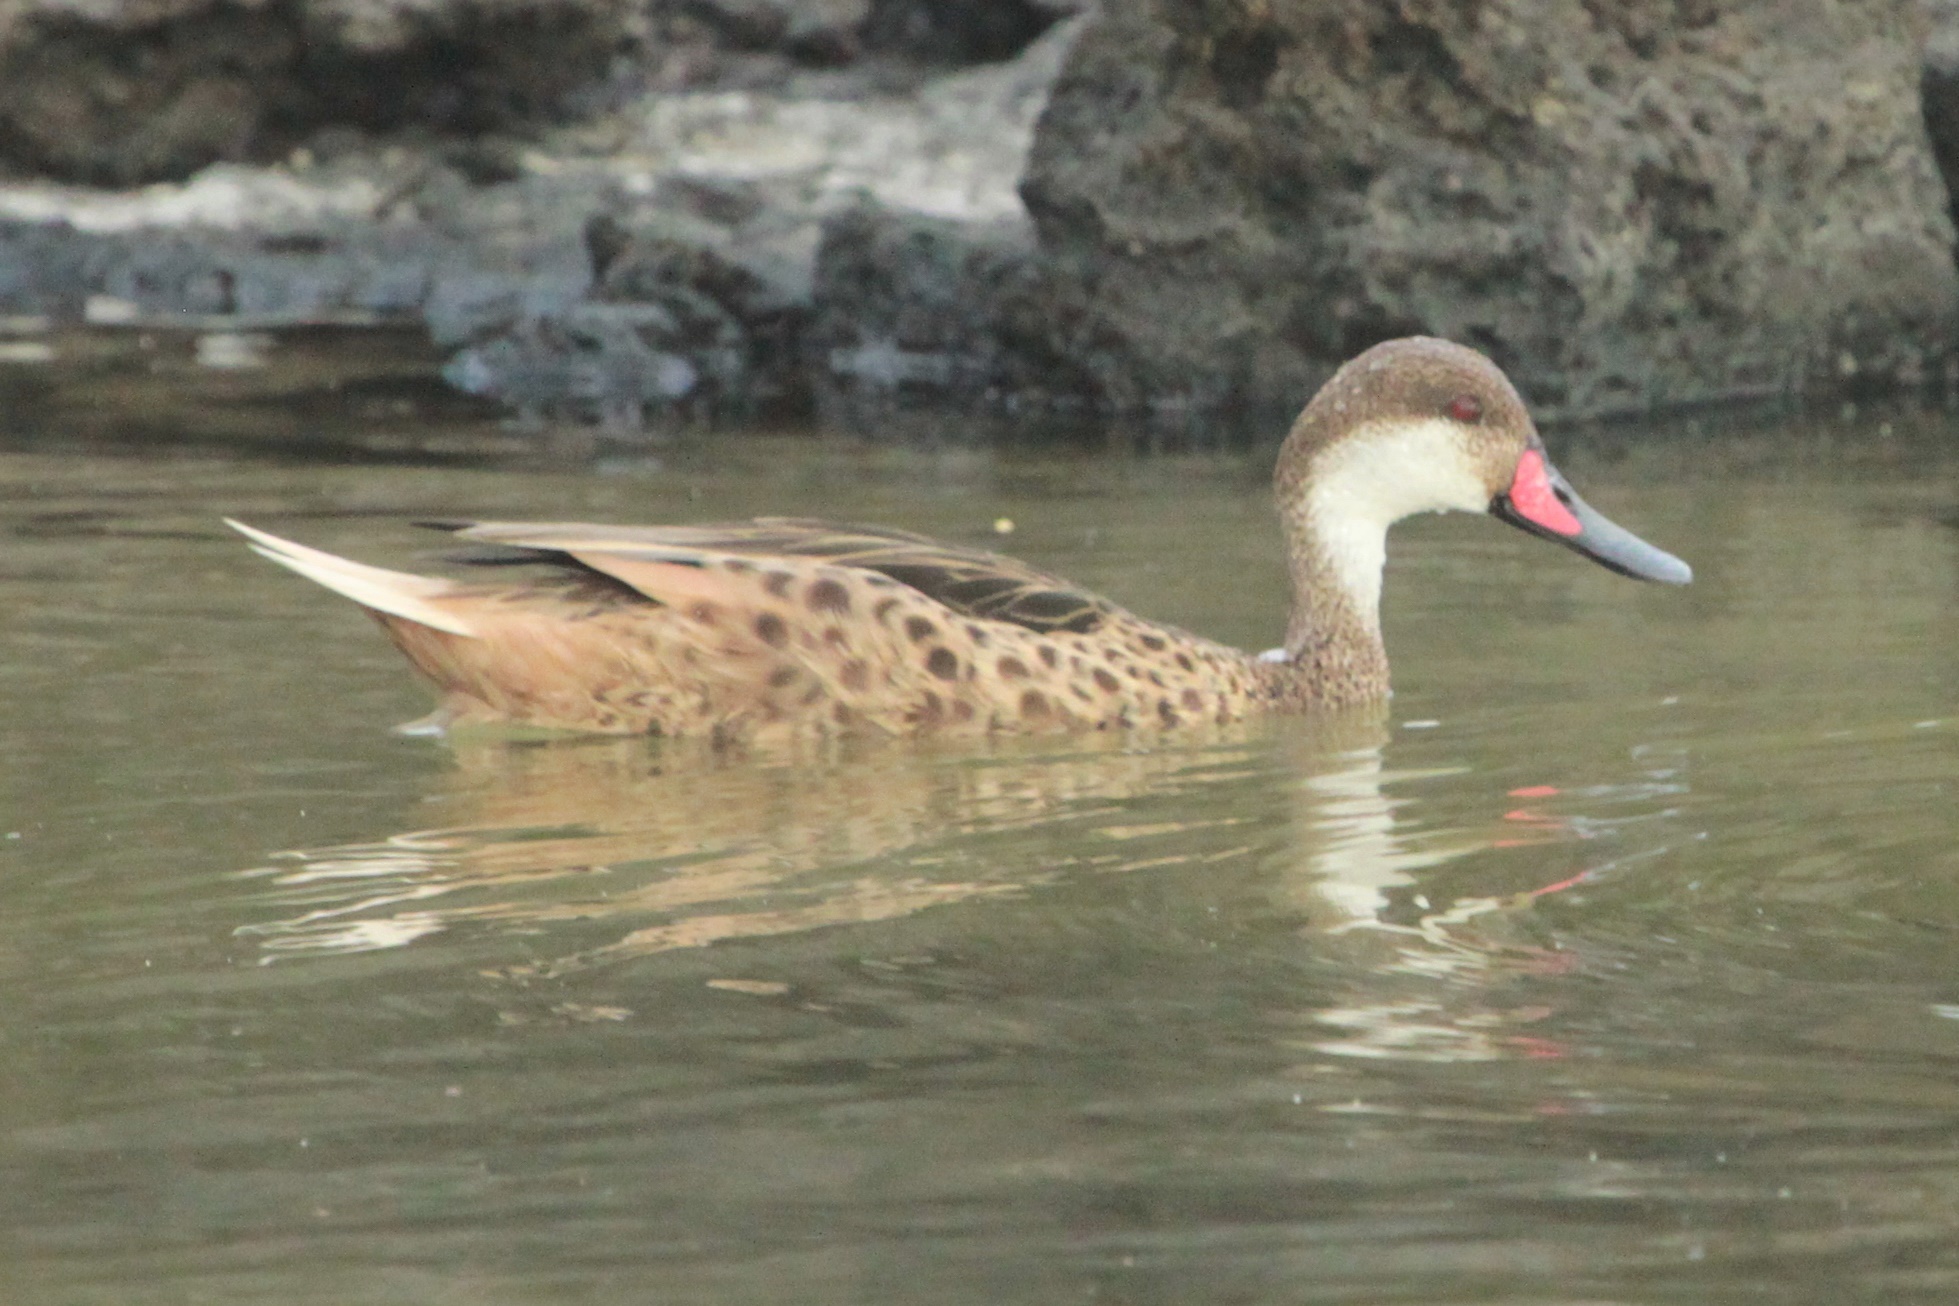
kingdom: Animalia
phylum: Chordata
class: Aves
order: Anseriformes
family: Anatidae
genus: Anas
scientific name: Anas bahamensis
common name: White-cheeked pintail
